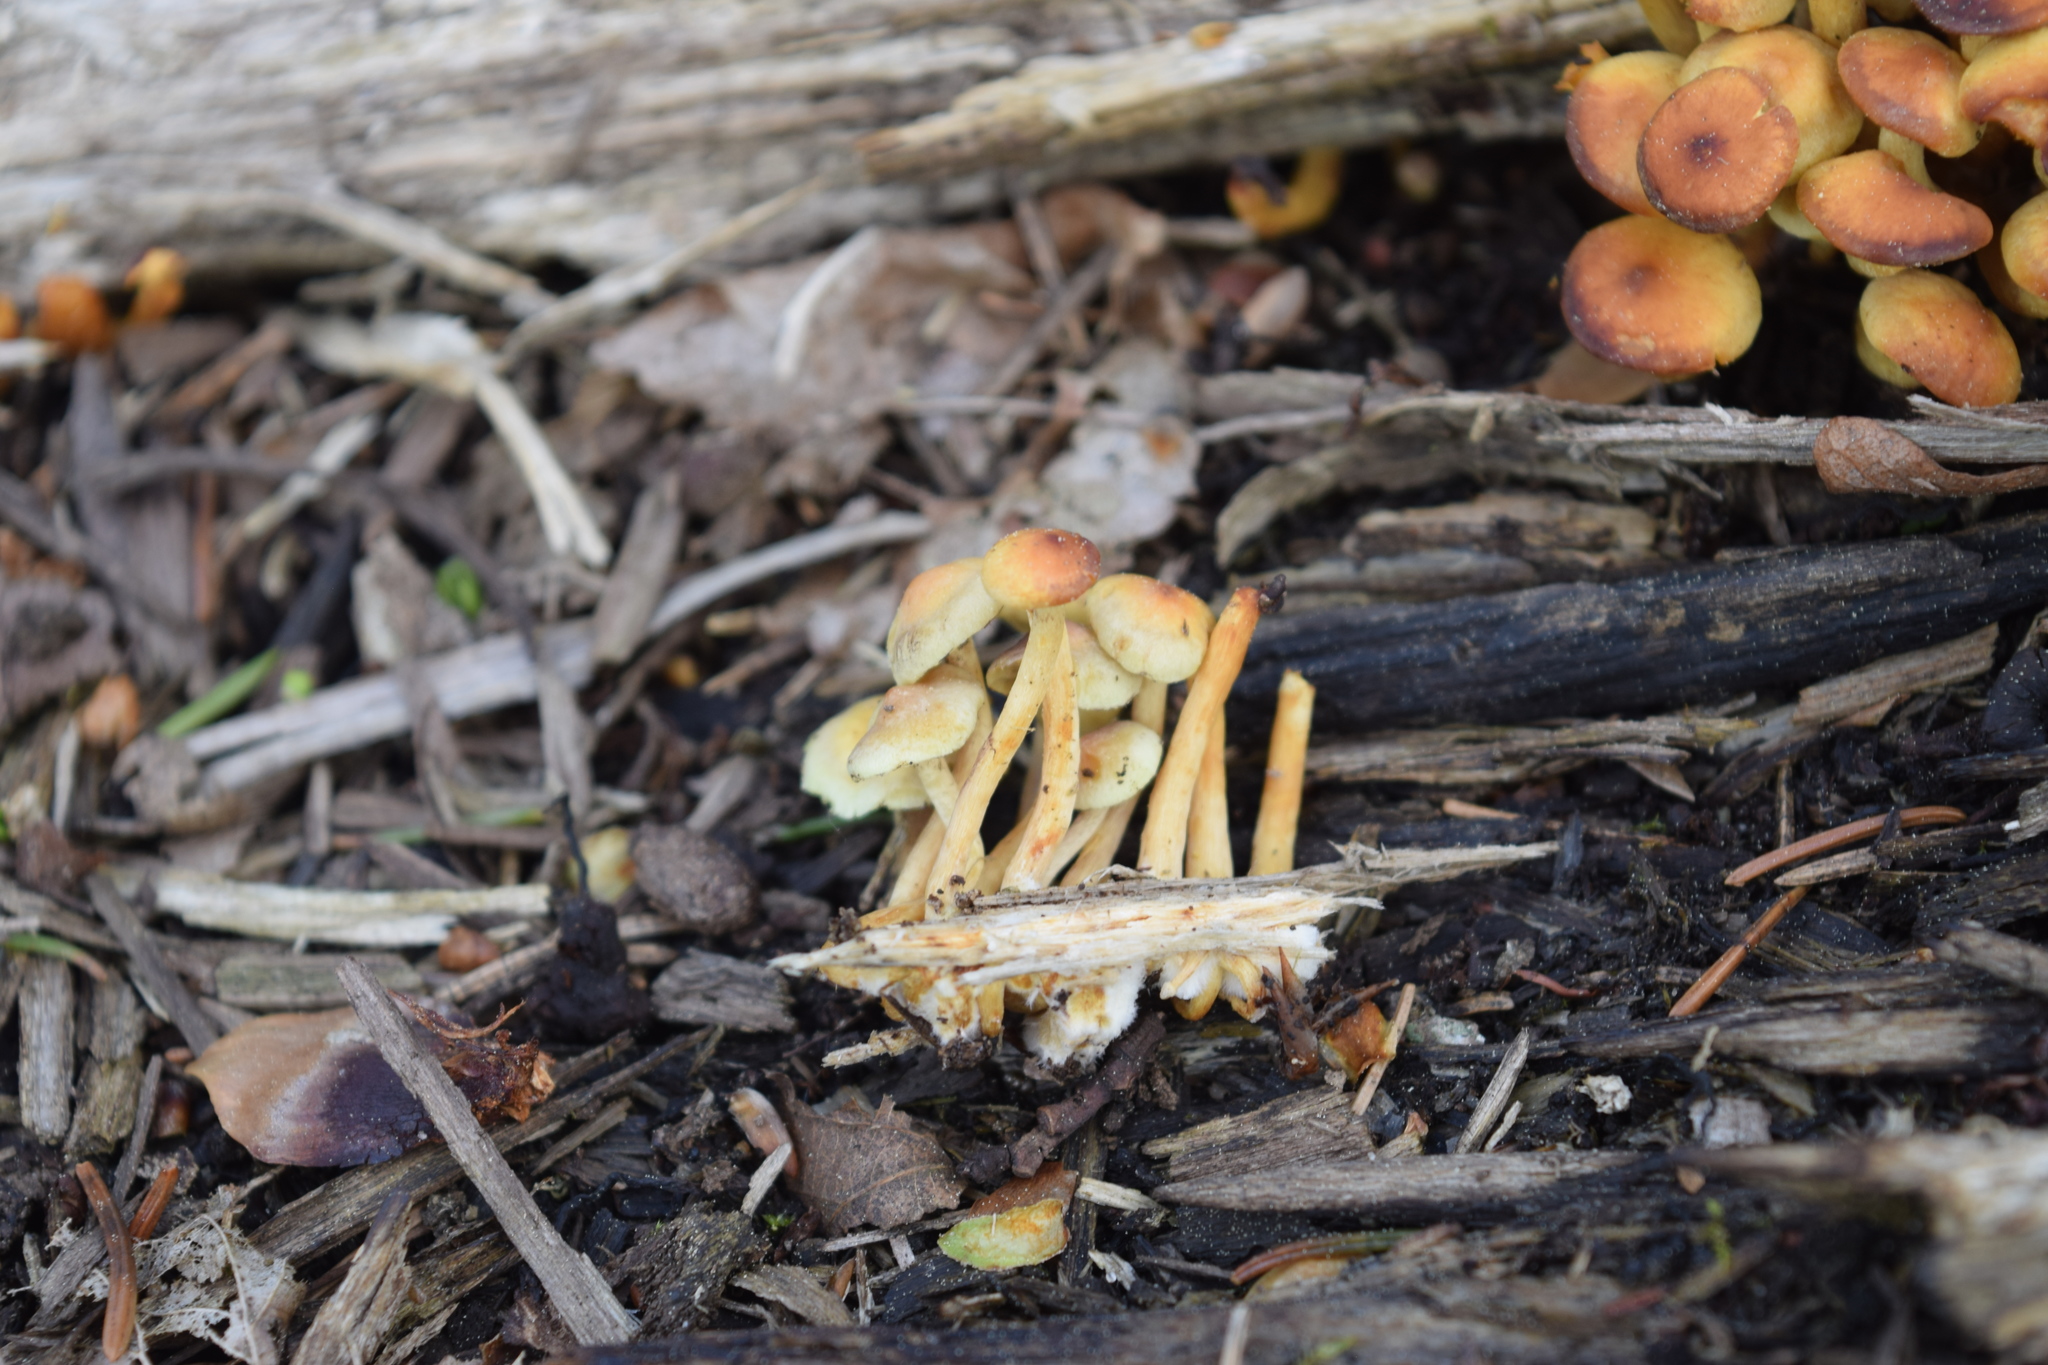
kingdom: Fungi
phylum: Basidiomycota
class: Agaricomycetes
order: Agaricales
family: Strophariaceae
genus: Hypholoma
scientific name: Hypholoma fasciculare
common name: Sulphur tuft
